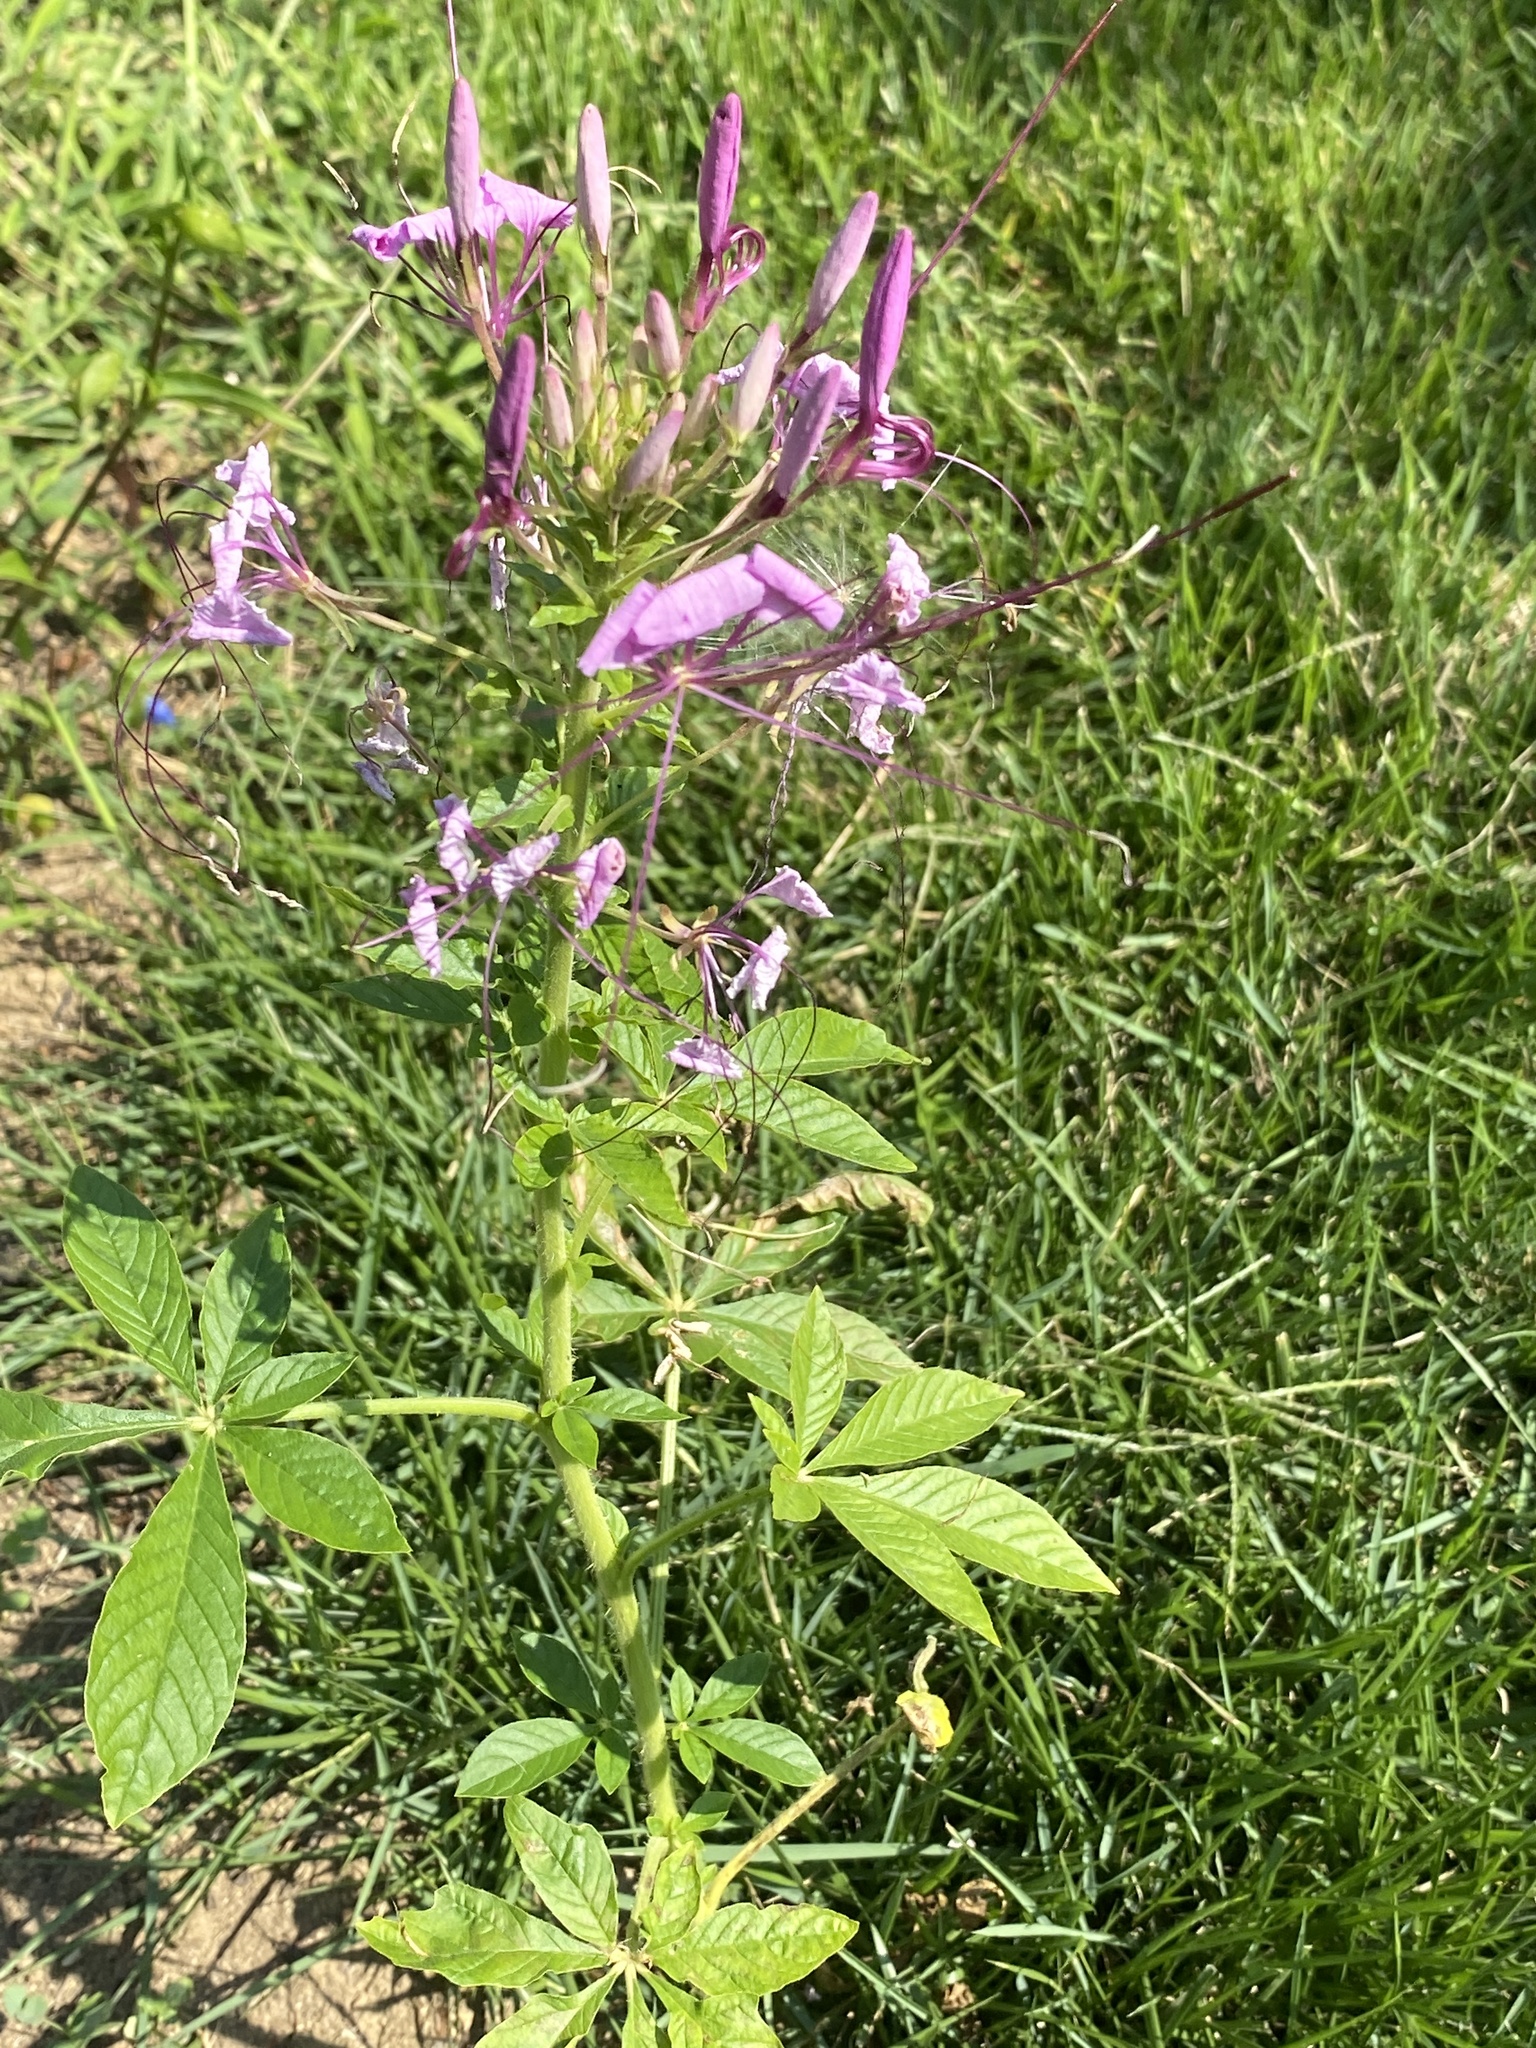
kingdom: Plantae
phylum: Tracheophyta
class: Magnoliopsida
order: Brassicales
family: Cleomaceae
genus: Tarenaya
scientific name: Tarenaya houtteana
